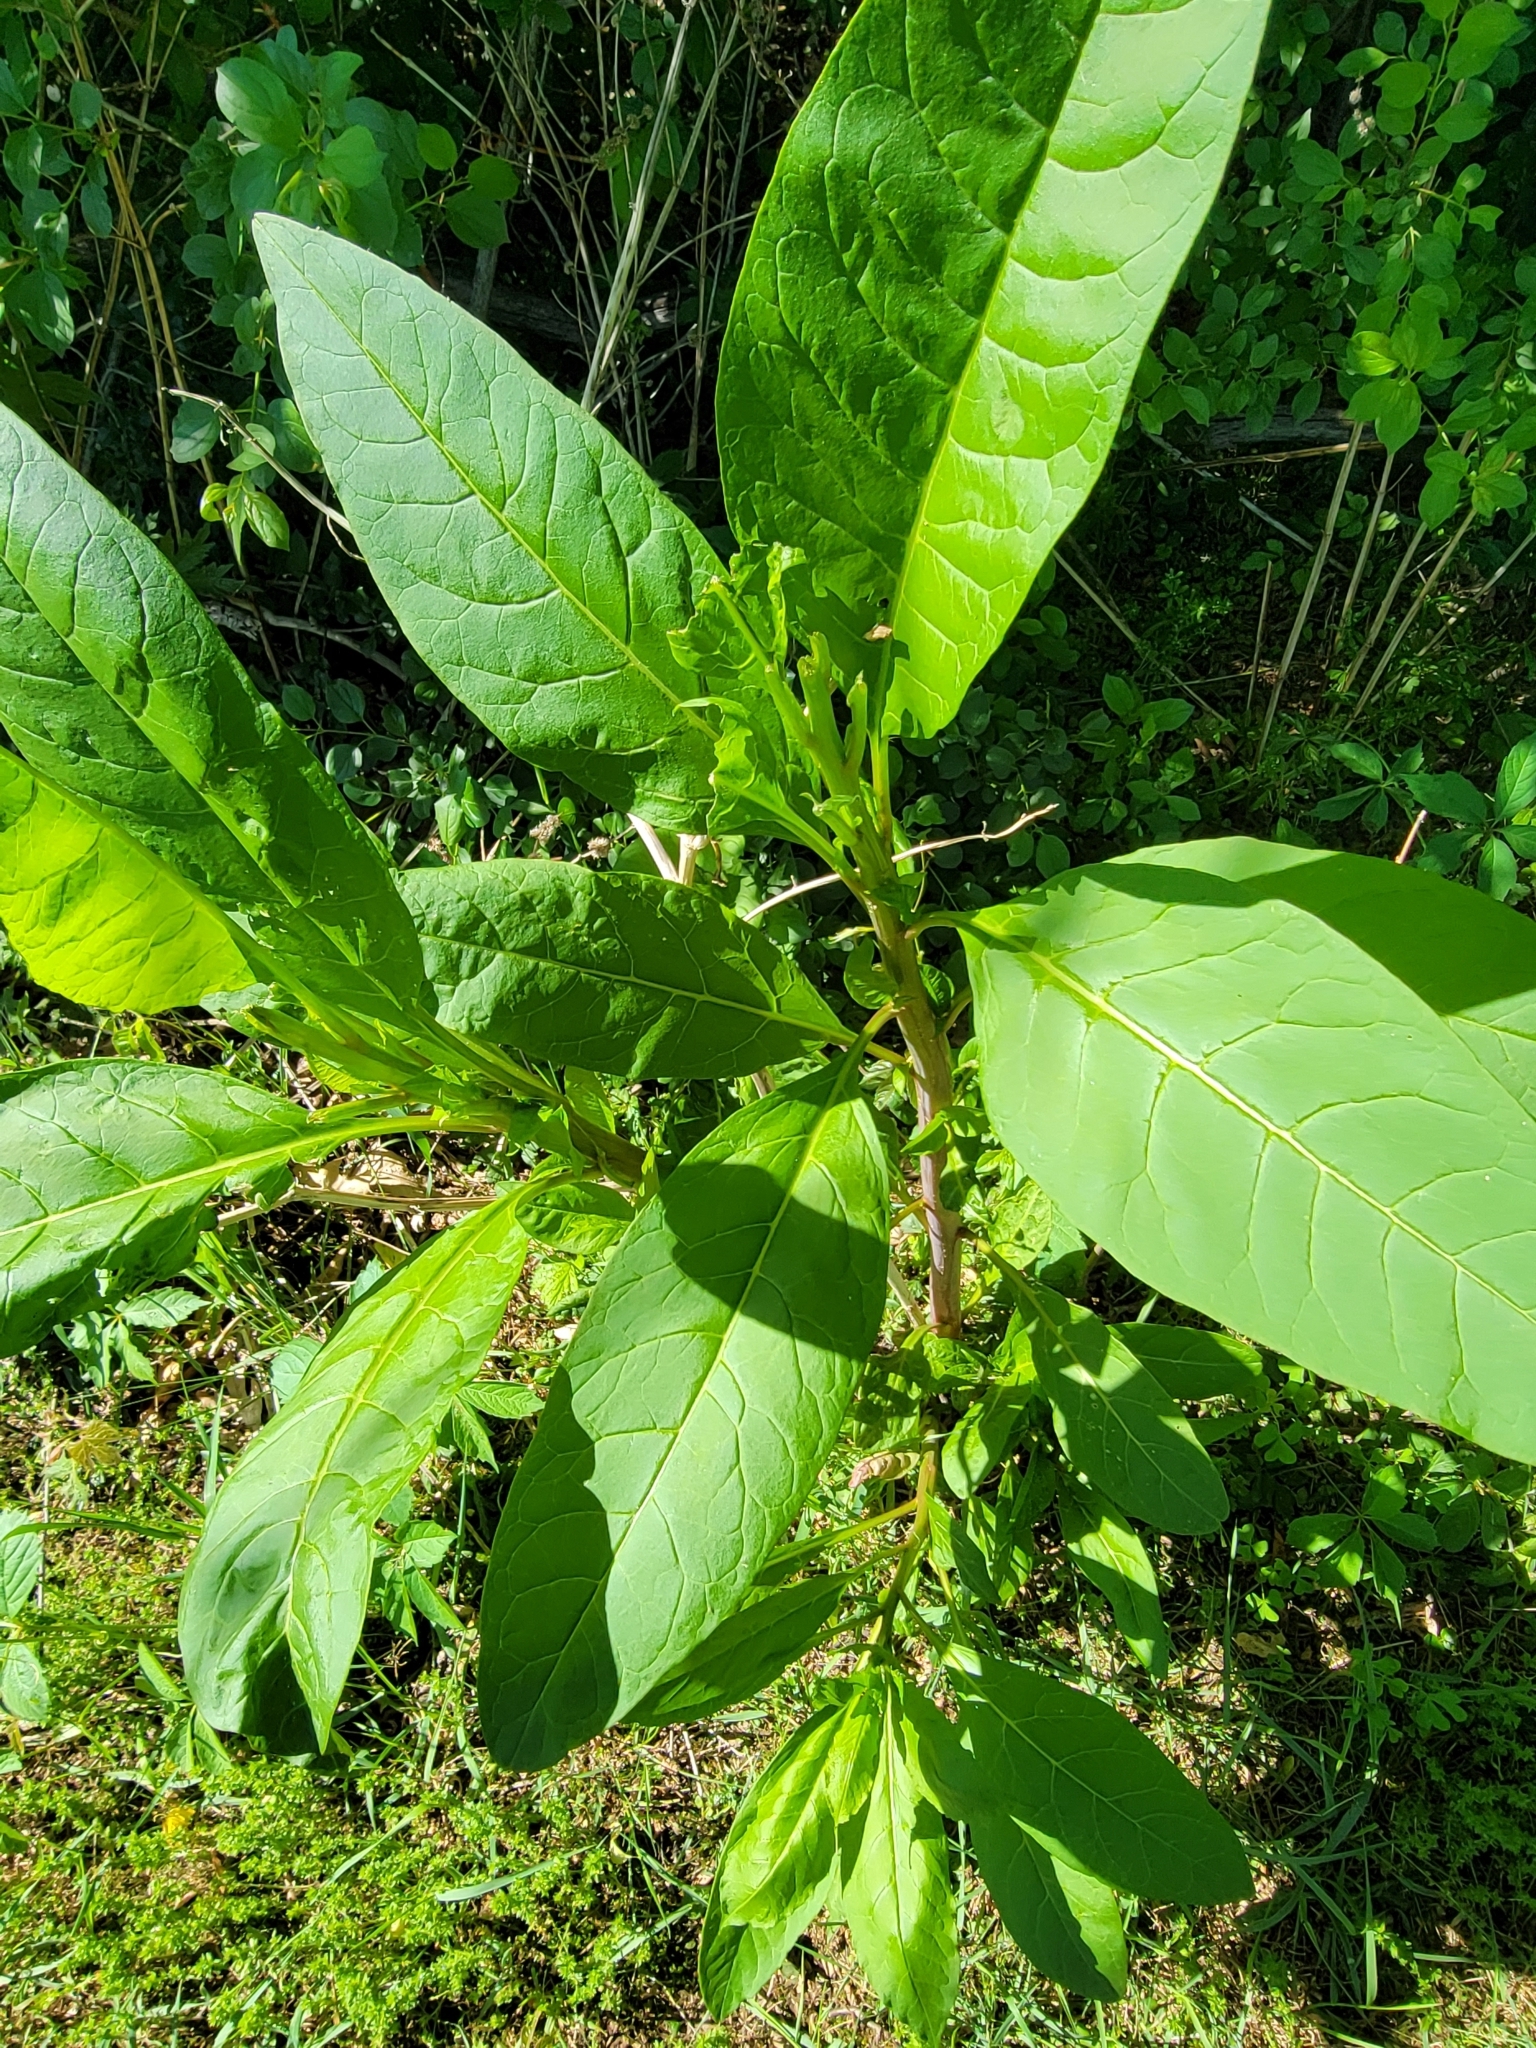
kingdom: Plantae
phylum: Tracheophyta
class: Magnoliopsida
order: Caryophyllales
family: Phytolaccaceae
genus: Phytolacca
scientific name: Phytolacca americana
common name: American pokeweed
